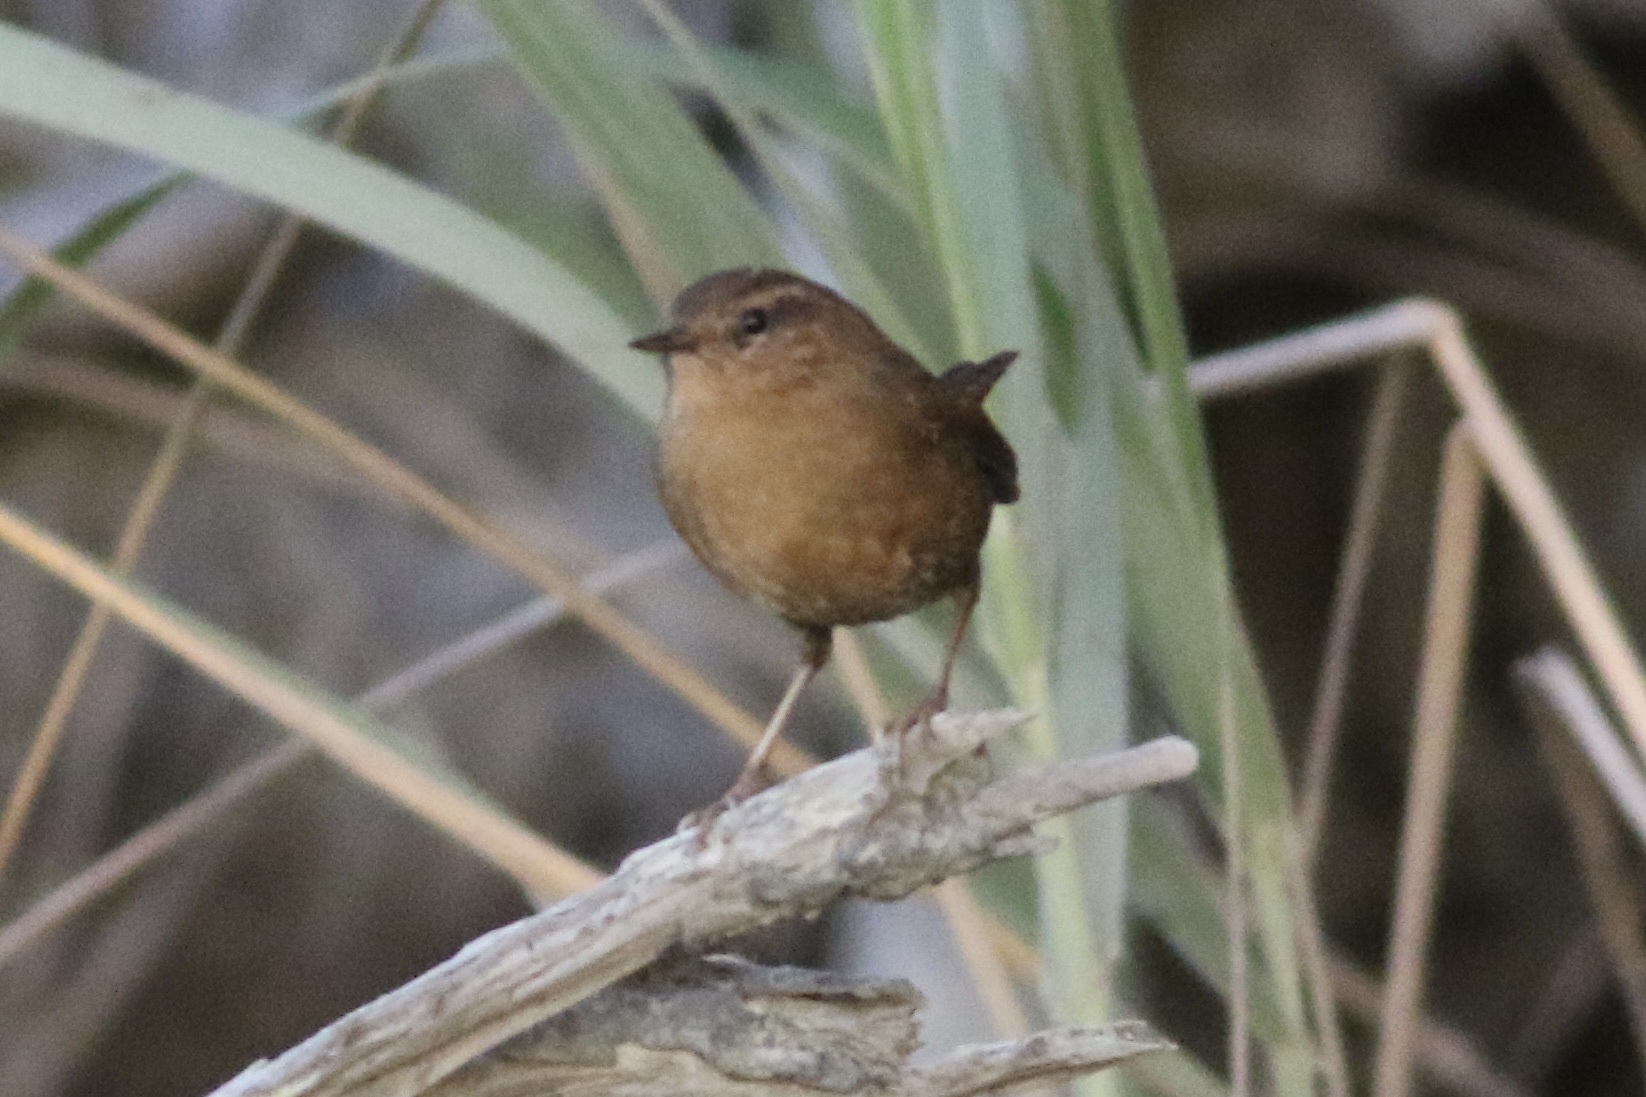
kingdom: Animalia
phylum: Chordata
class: Aves
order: Passeriformes
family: Troglodytidae
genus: Troglodytes
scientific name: Troglodytes pacificus
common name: Pacific wren
